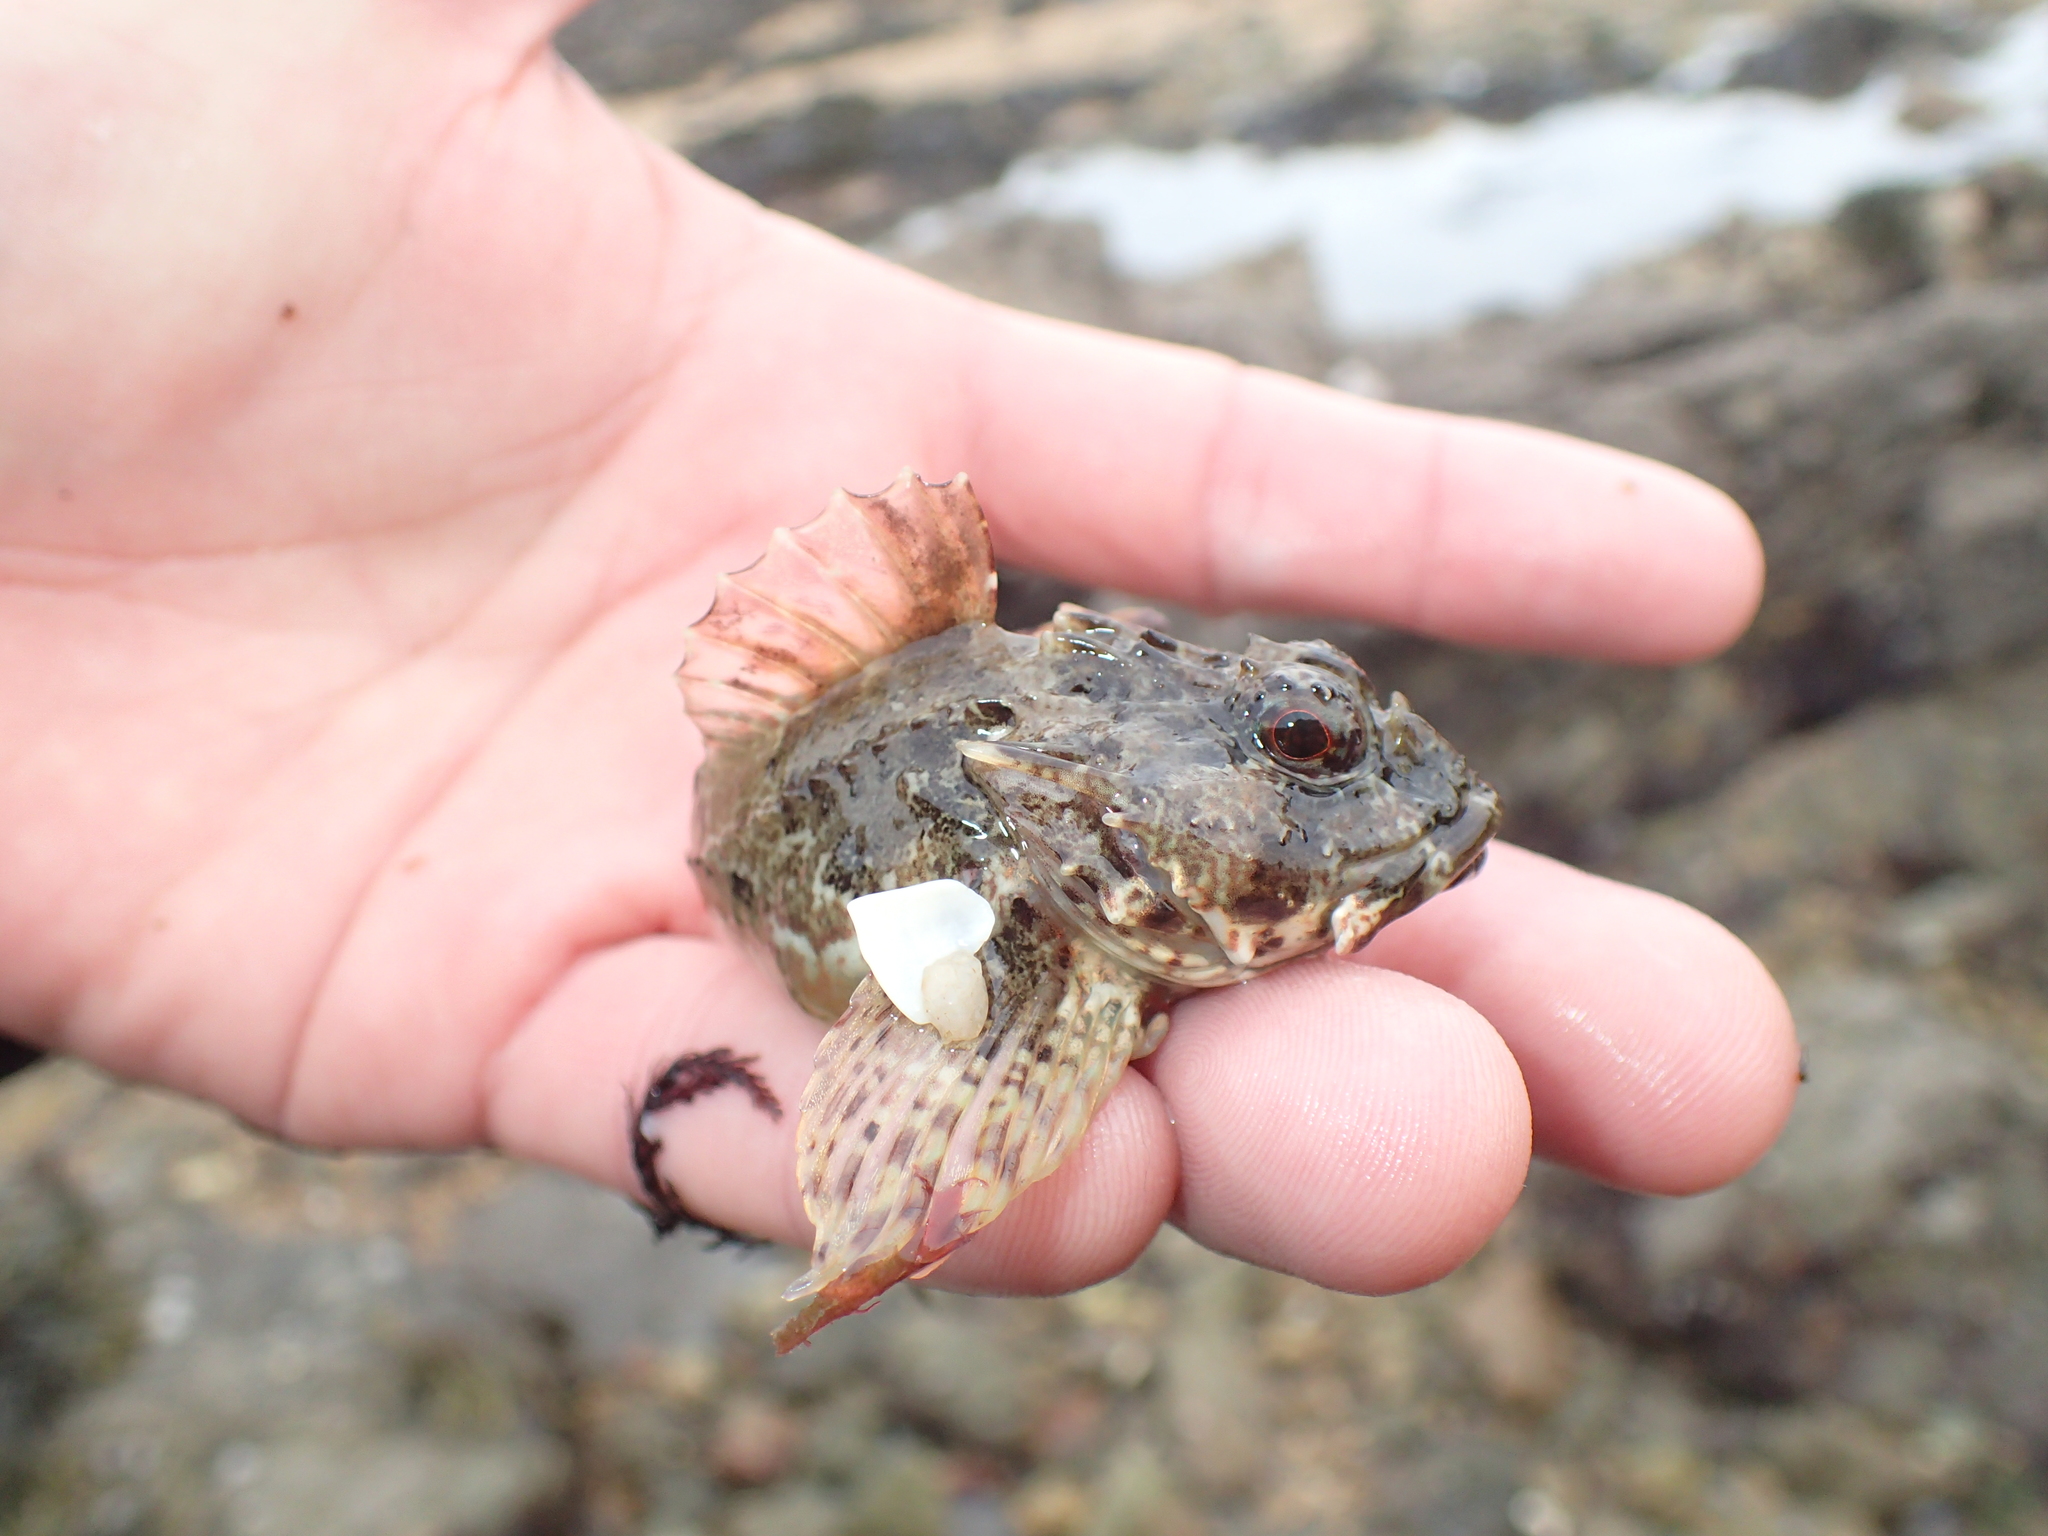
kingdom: Animalia
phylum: Chordata
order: Scorpaeniformes
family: Cottidae
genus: Taurulus
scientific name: Taurulus bubalis
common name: Sea scorpion
